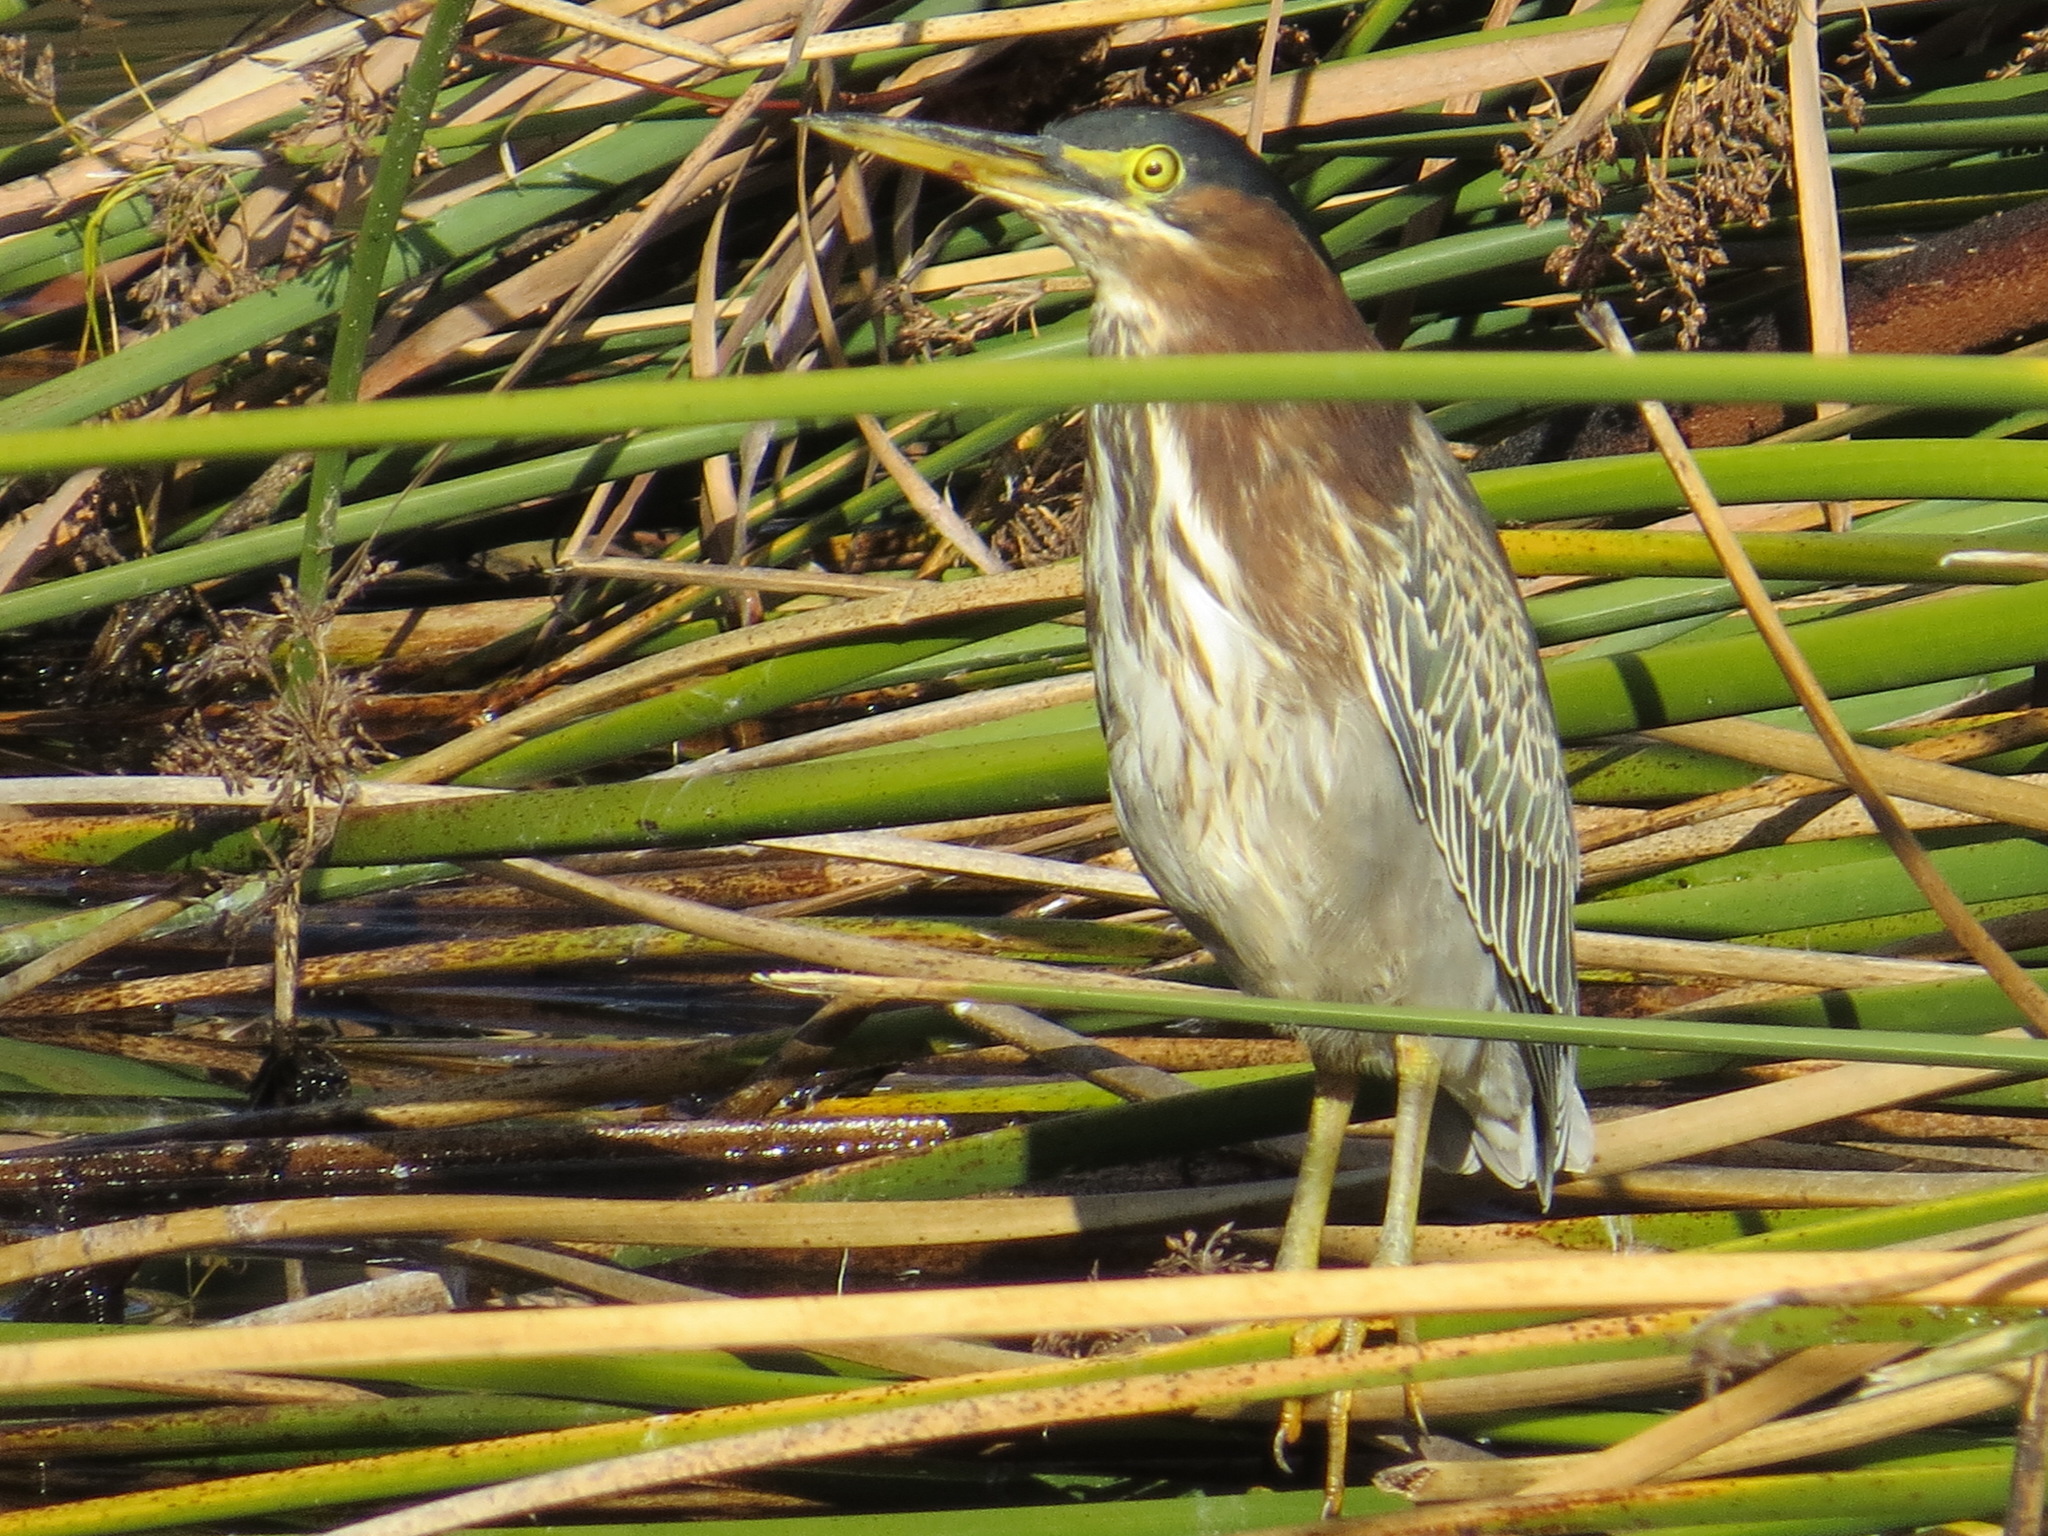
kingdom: Animalia
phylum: Chordata
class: Aves
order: Pelecaniformes
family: Ardeidae
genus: Butorides
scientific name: Butorides virescens
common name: Green heron
